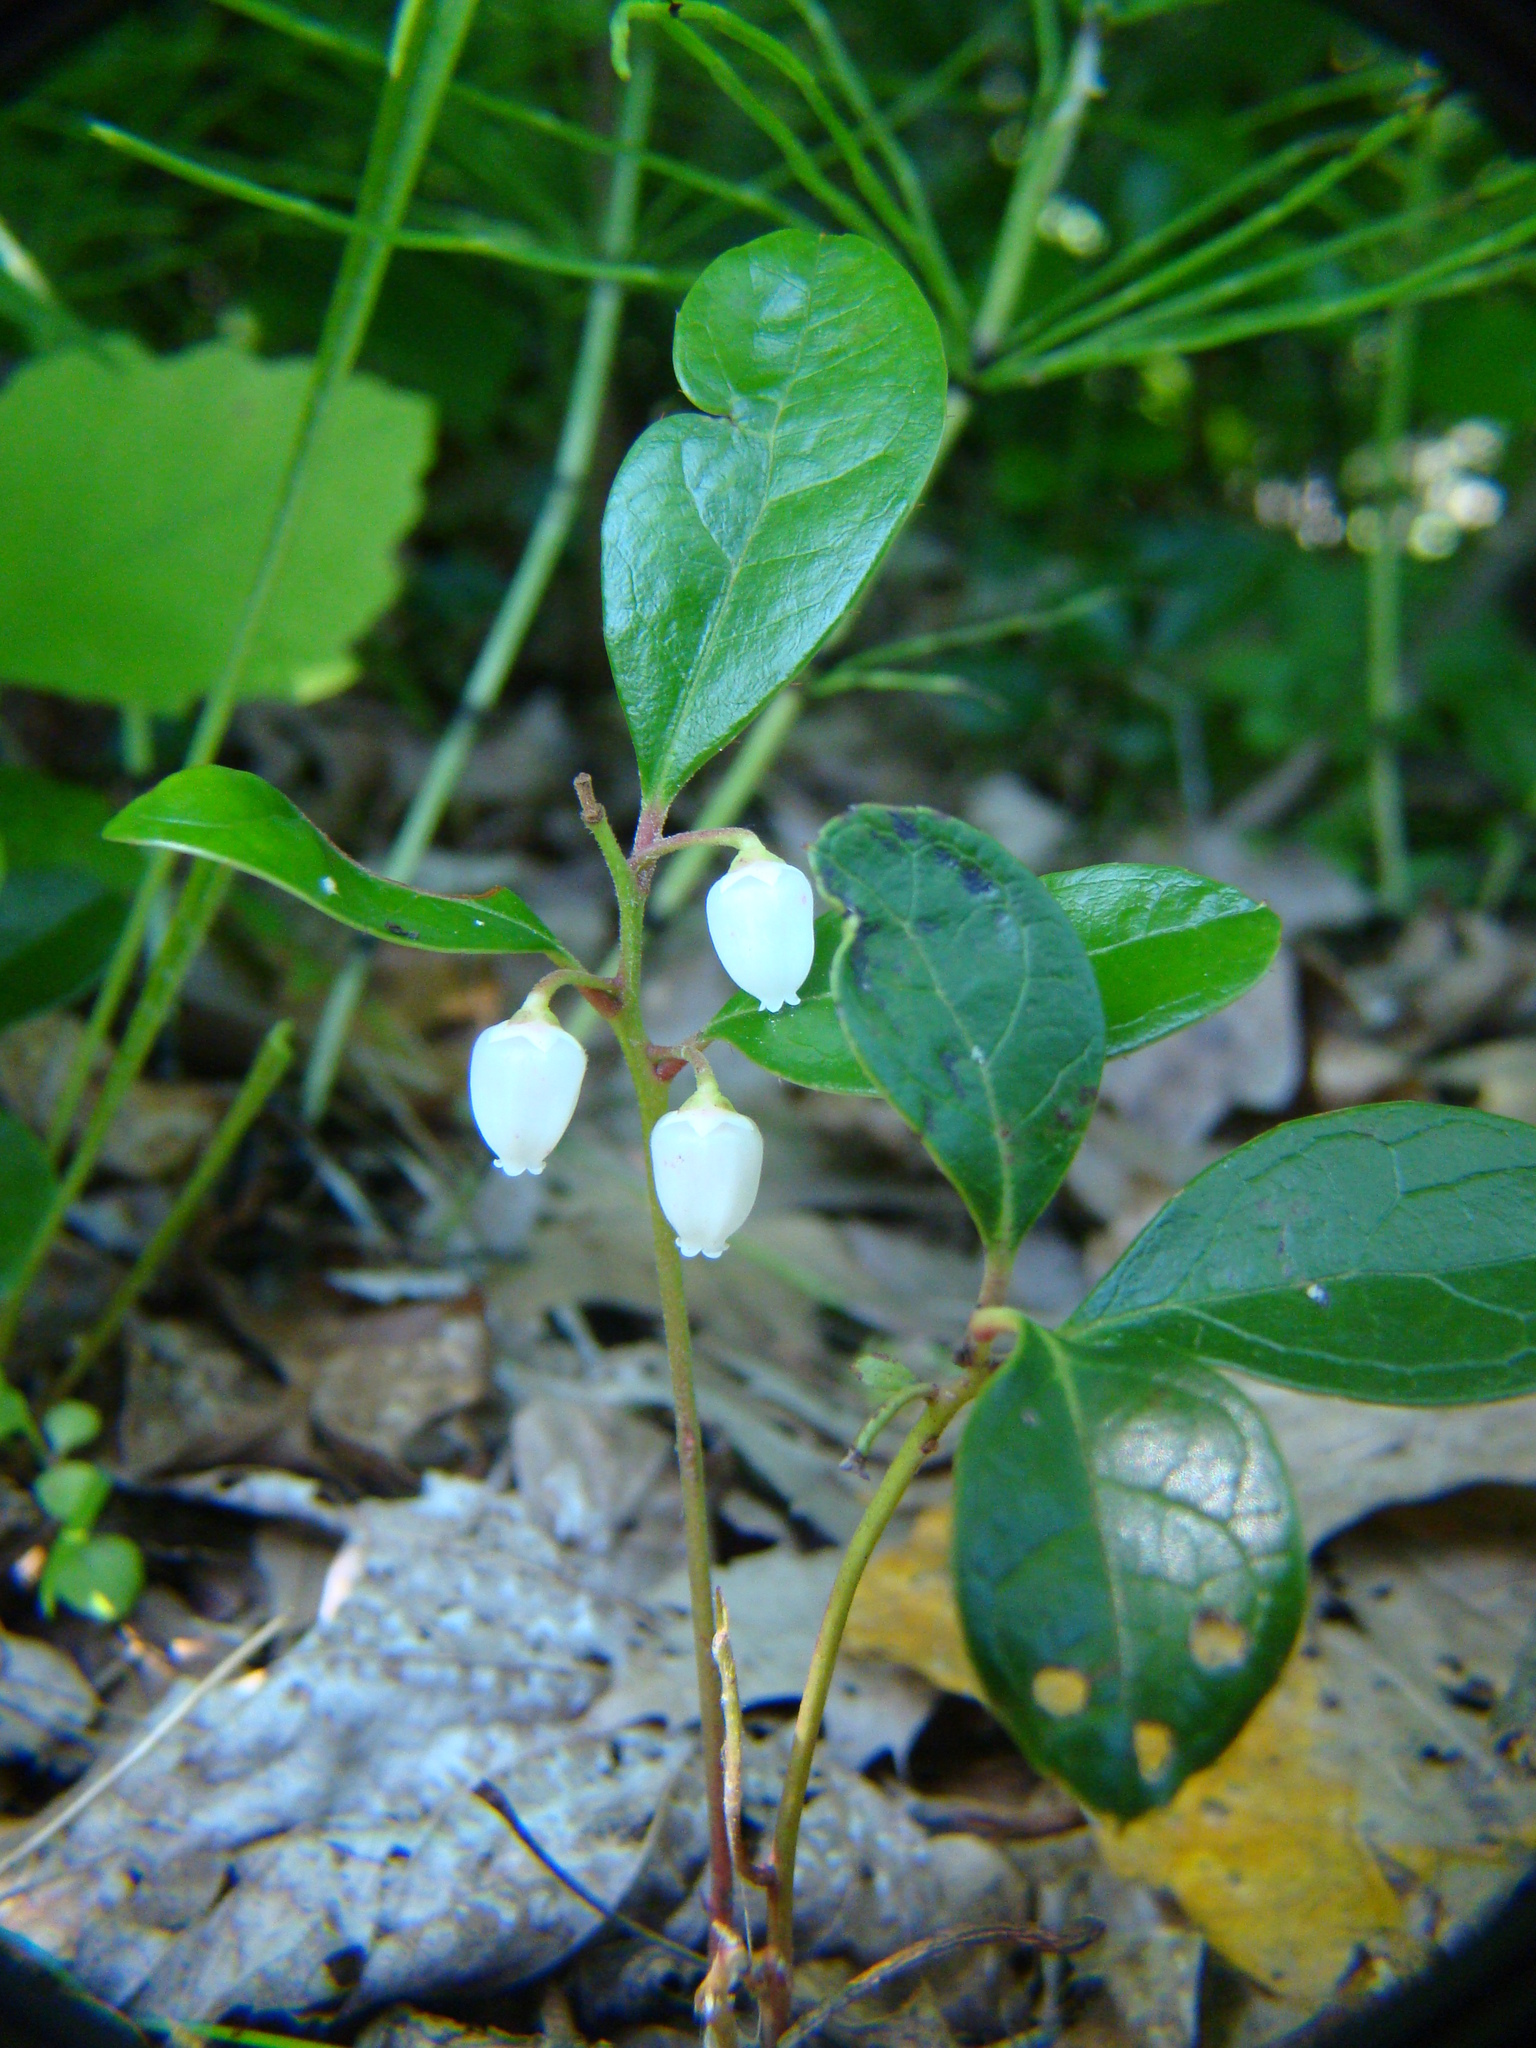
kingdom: Plantae
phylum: Tracheophyta
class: Magnoliopsida
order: Ericales
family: Ericaceae
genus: Gaultheria
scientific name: Gaultheria procumbens
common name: Checkerberry
